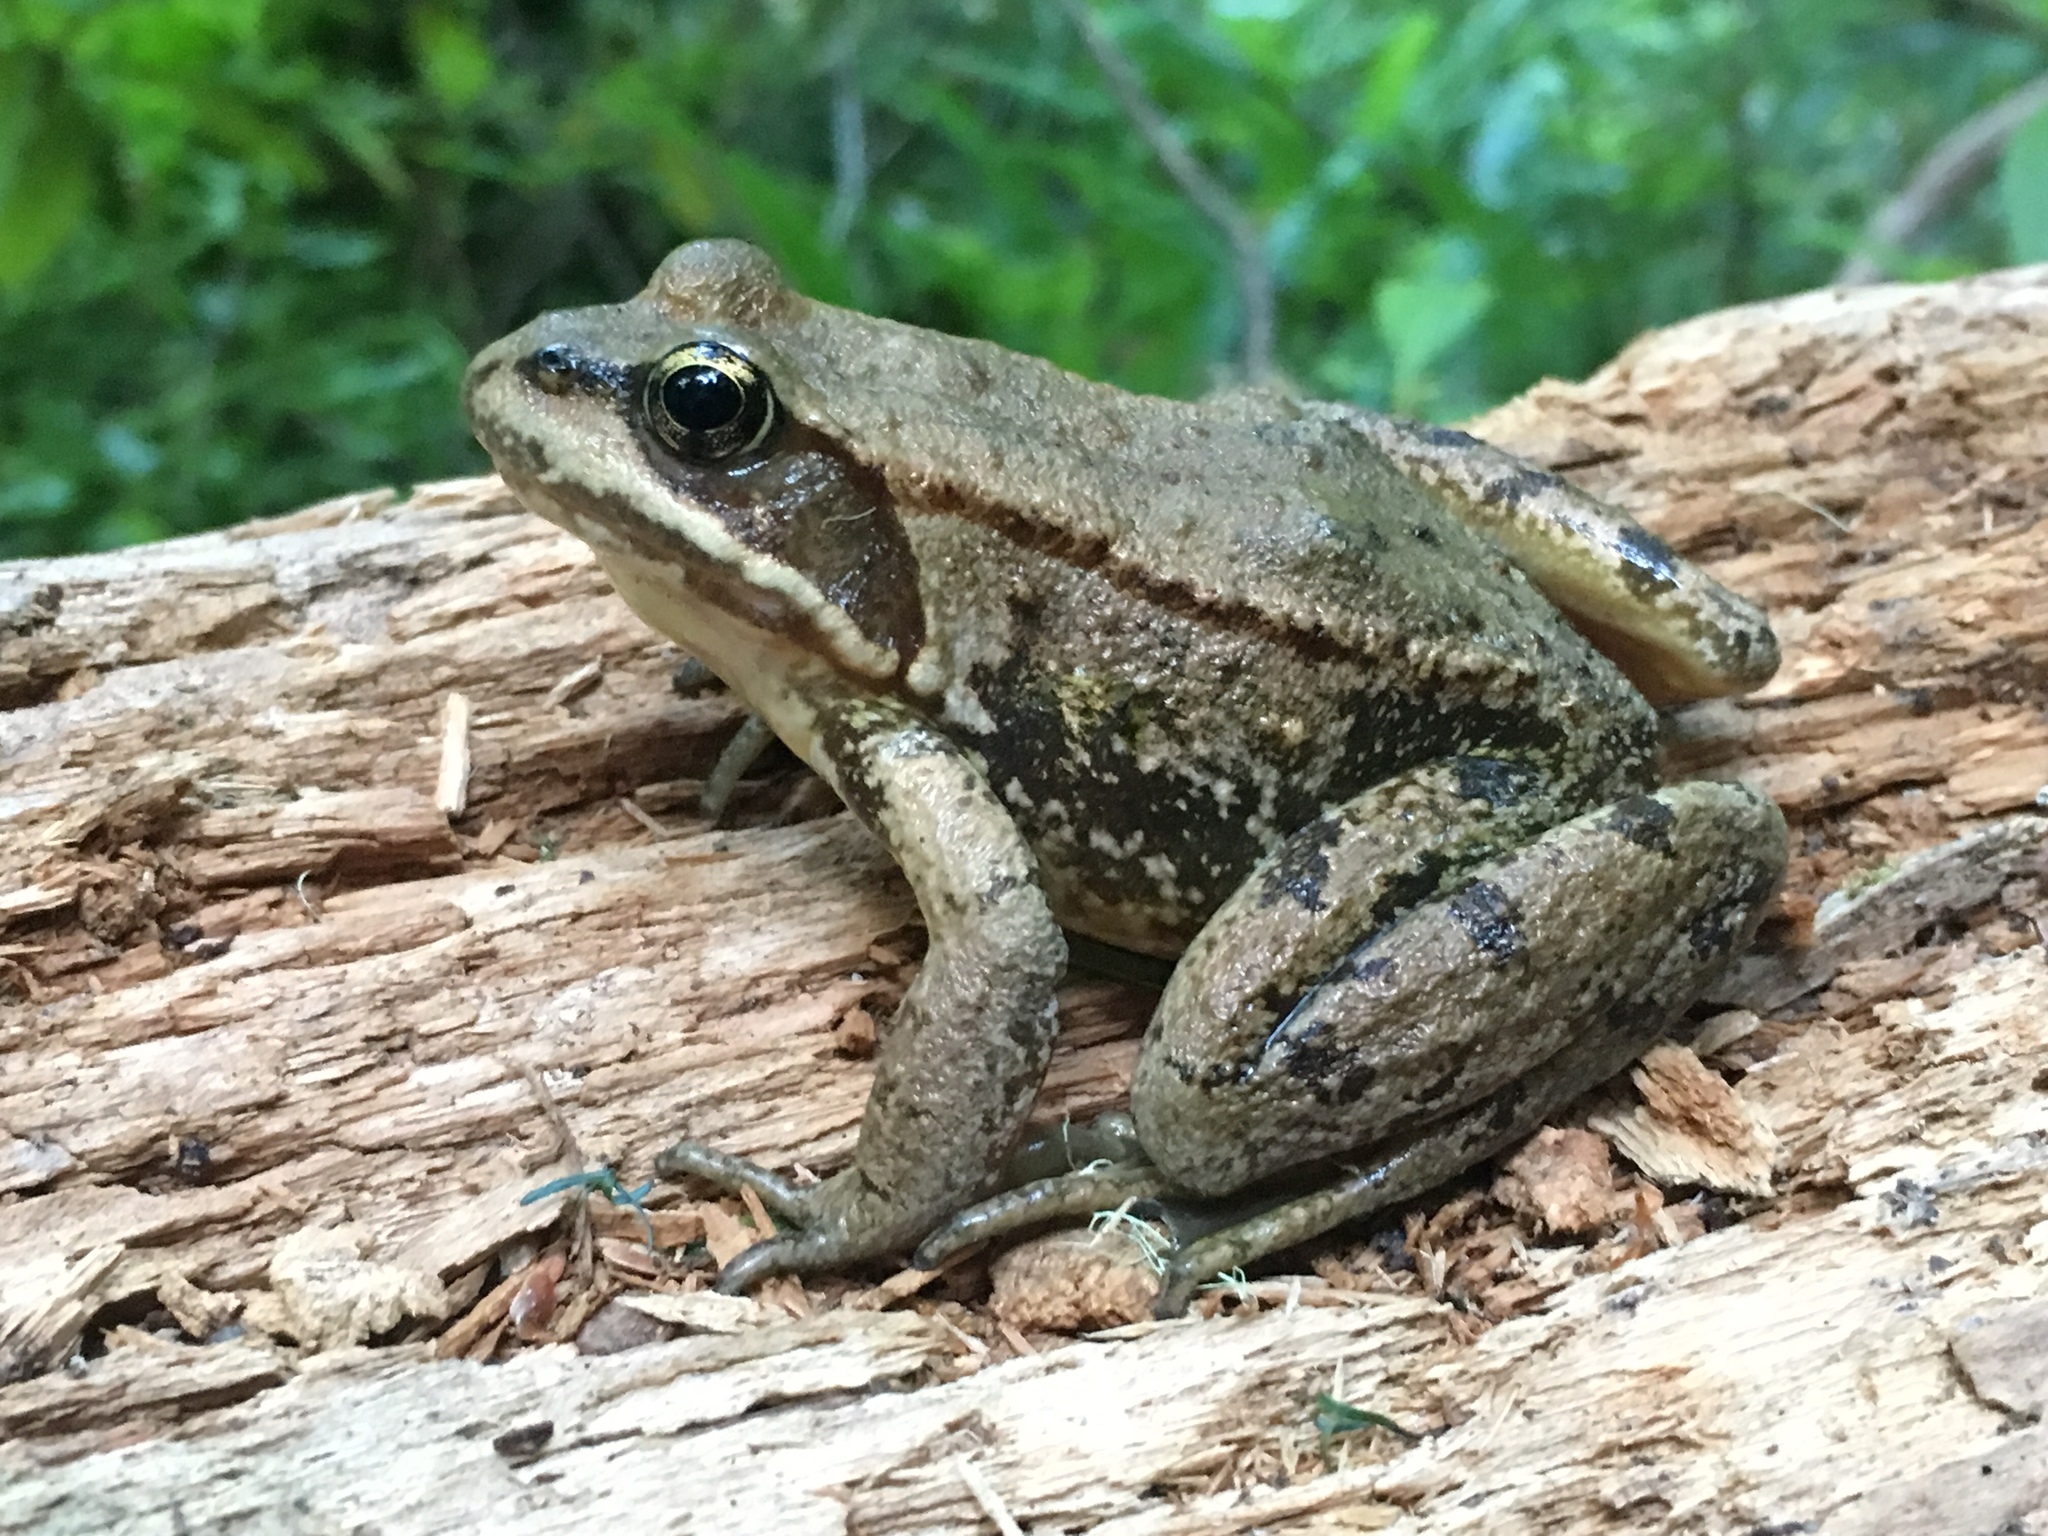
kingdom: Animalia
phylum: Chordata
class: Amphibia
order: Anura
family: Ranidae
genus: Rana
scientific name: Rana cascadae
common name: Cascades frog
